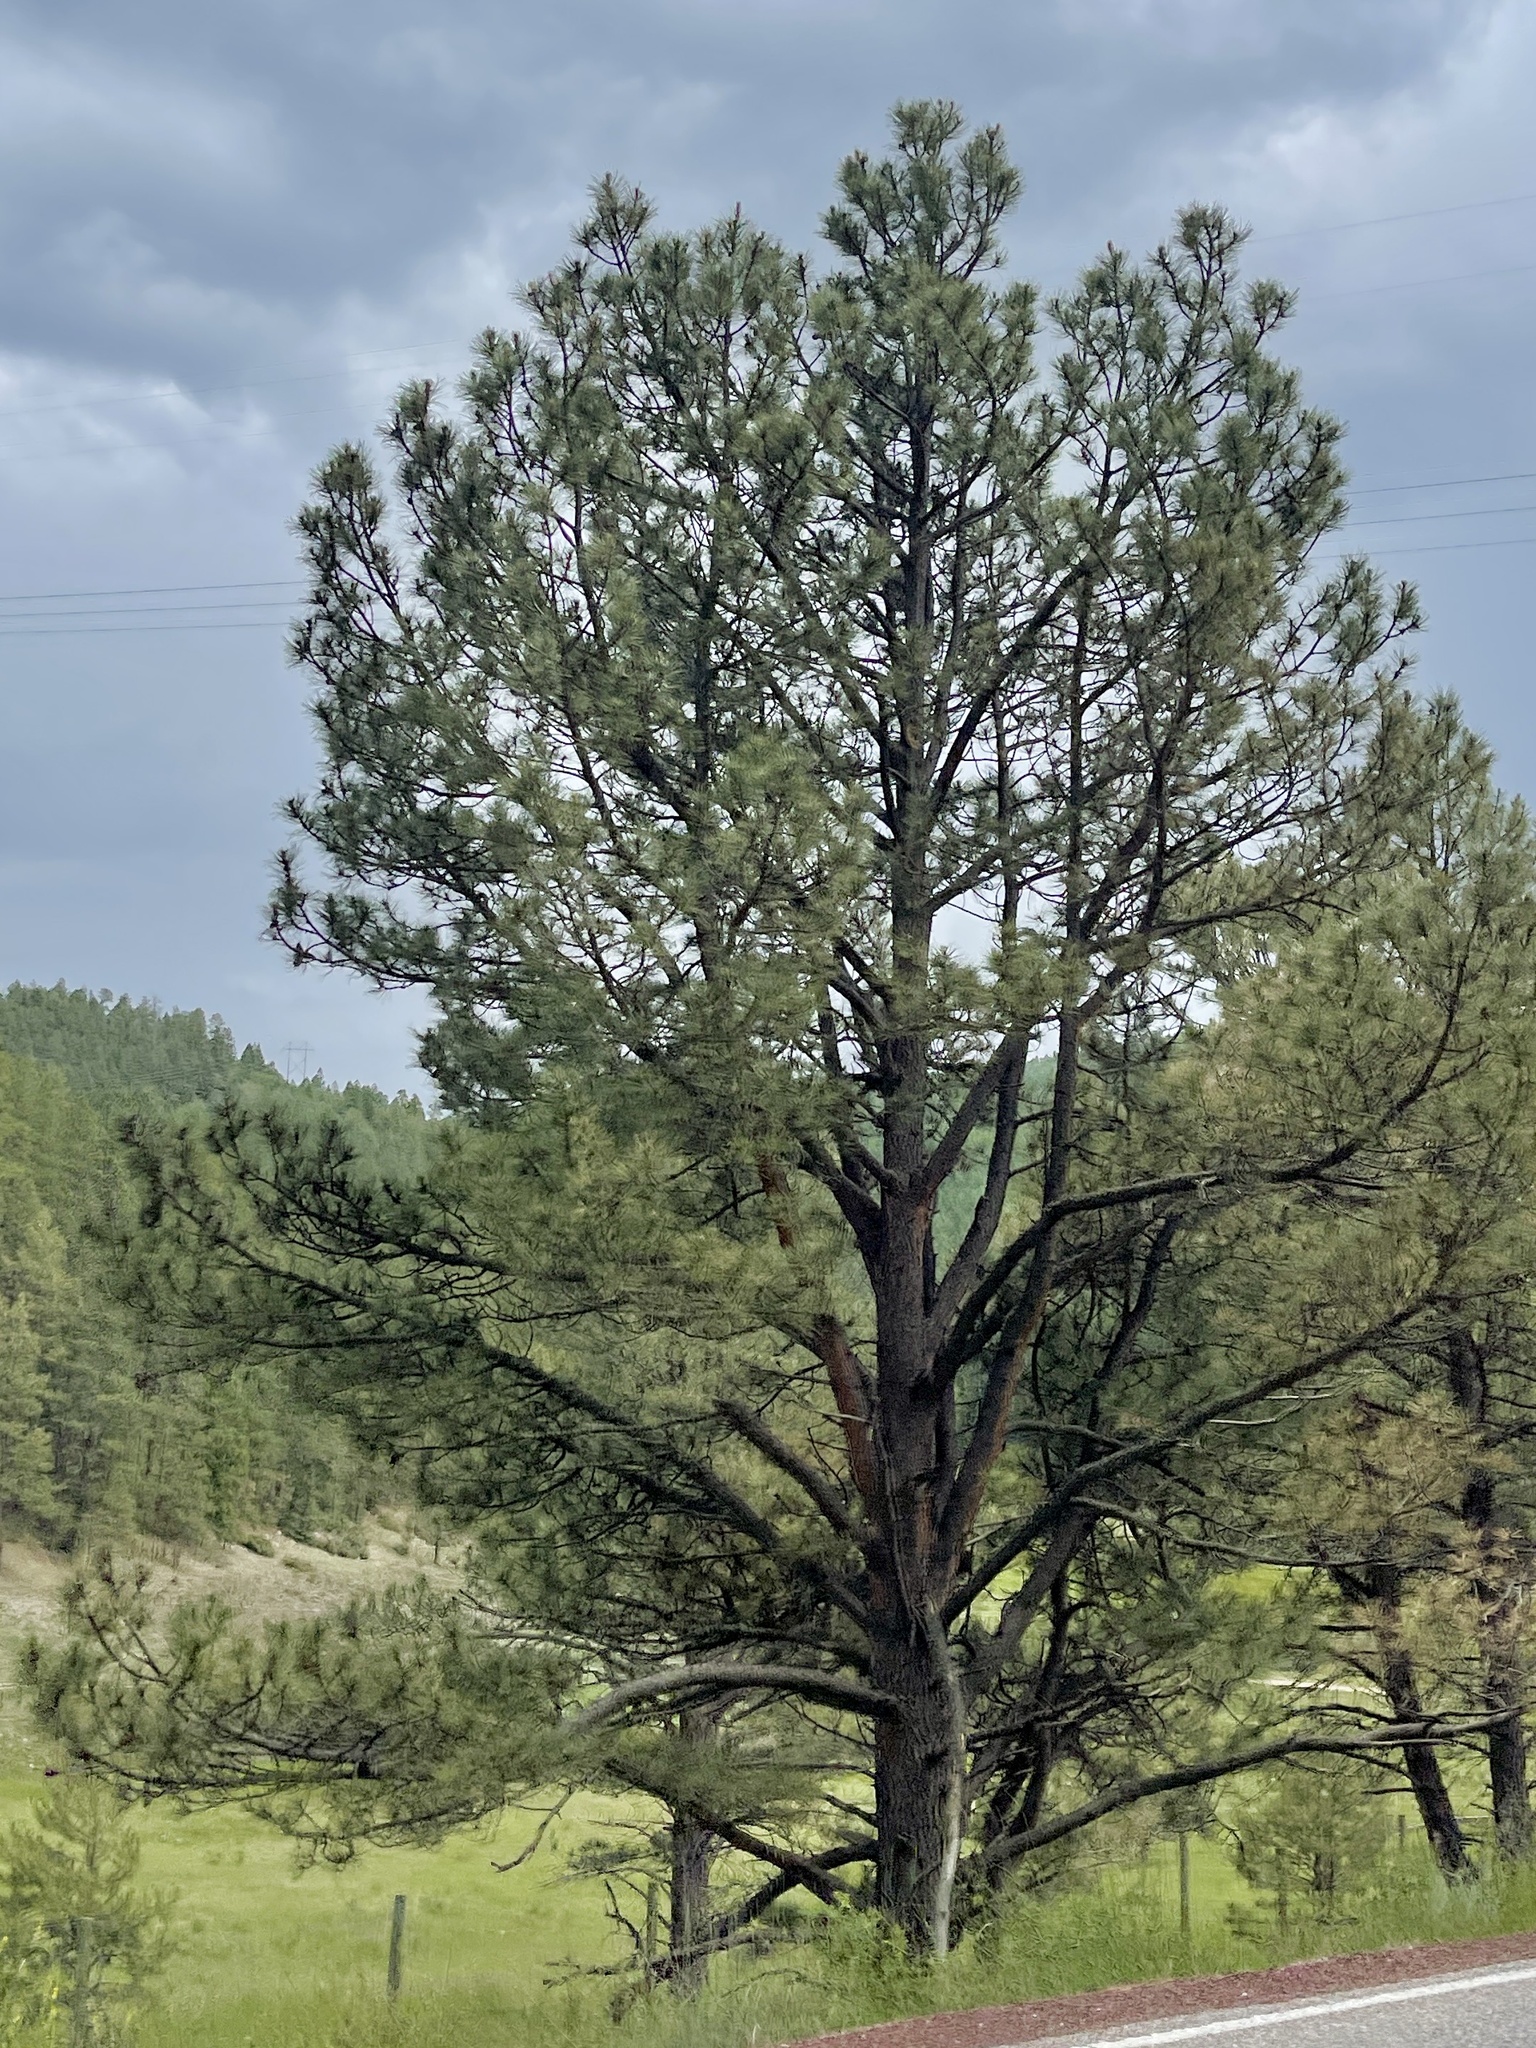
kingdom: Plantae
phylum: Tracheophyta
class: Pinopsida
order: Pinales
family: Pinaceae
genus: Pinus
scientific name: Pinus ponderosa
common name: Western yellow-pine
